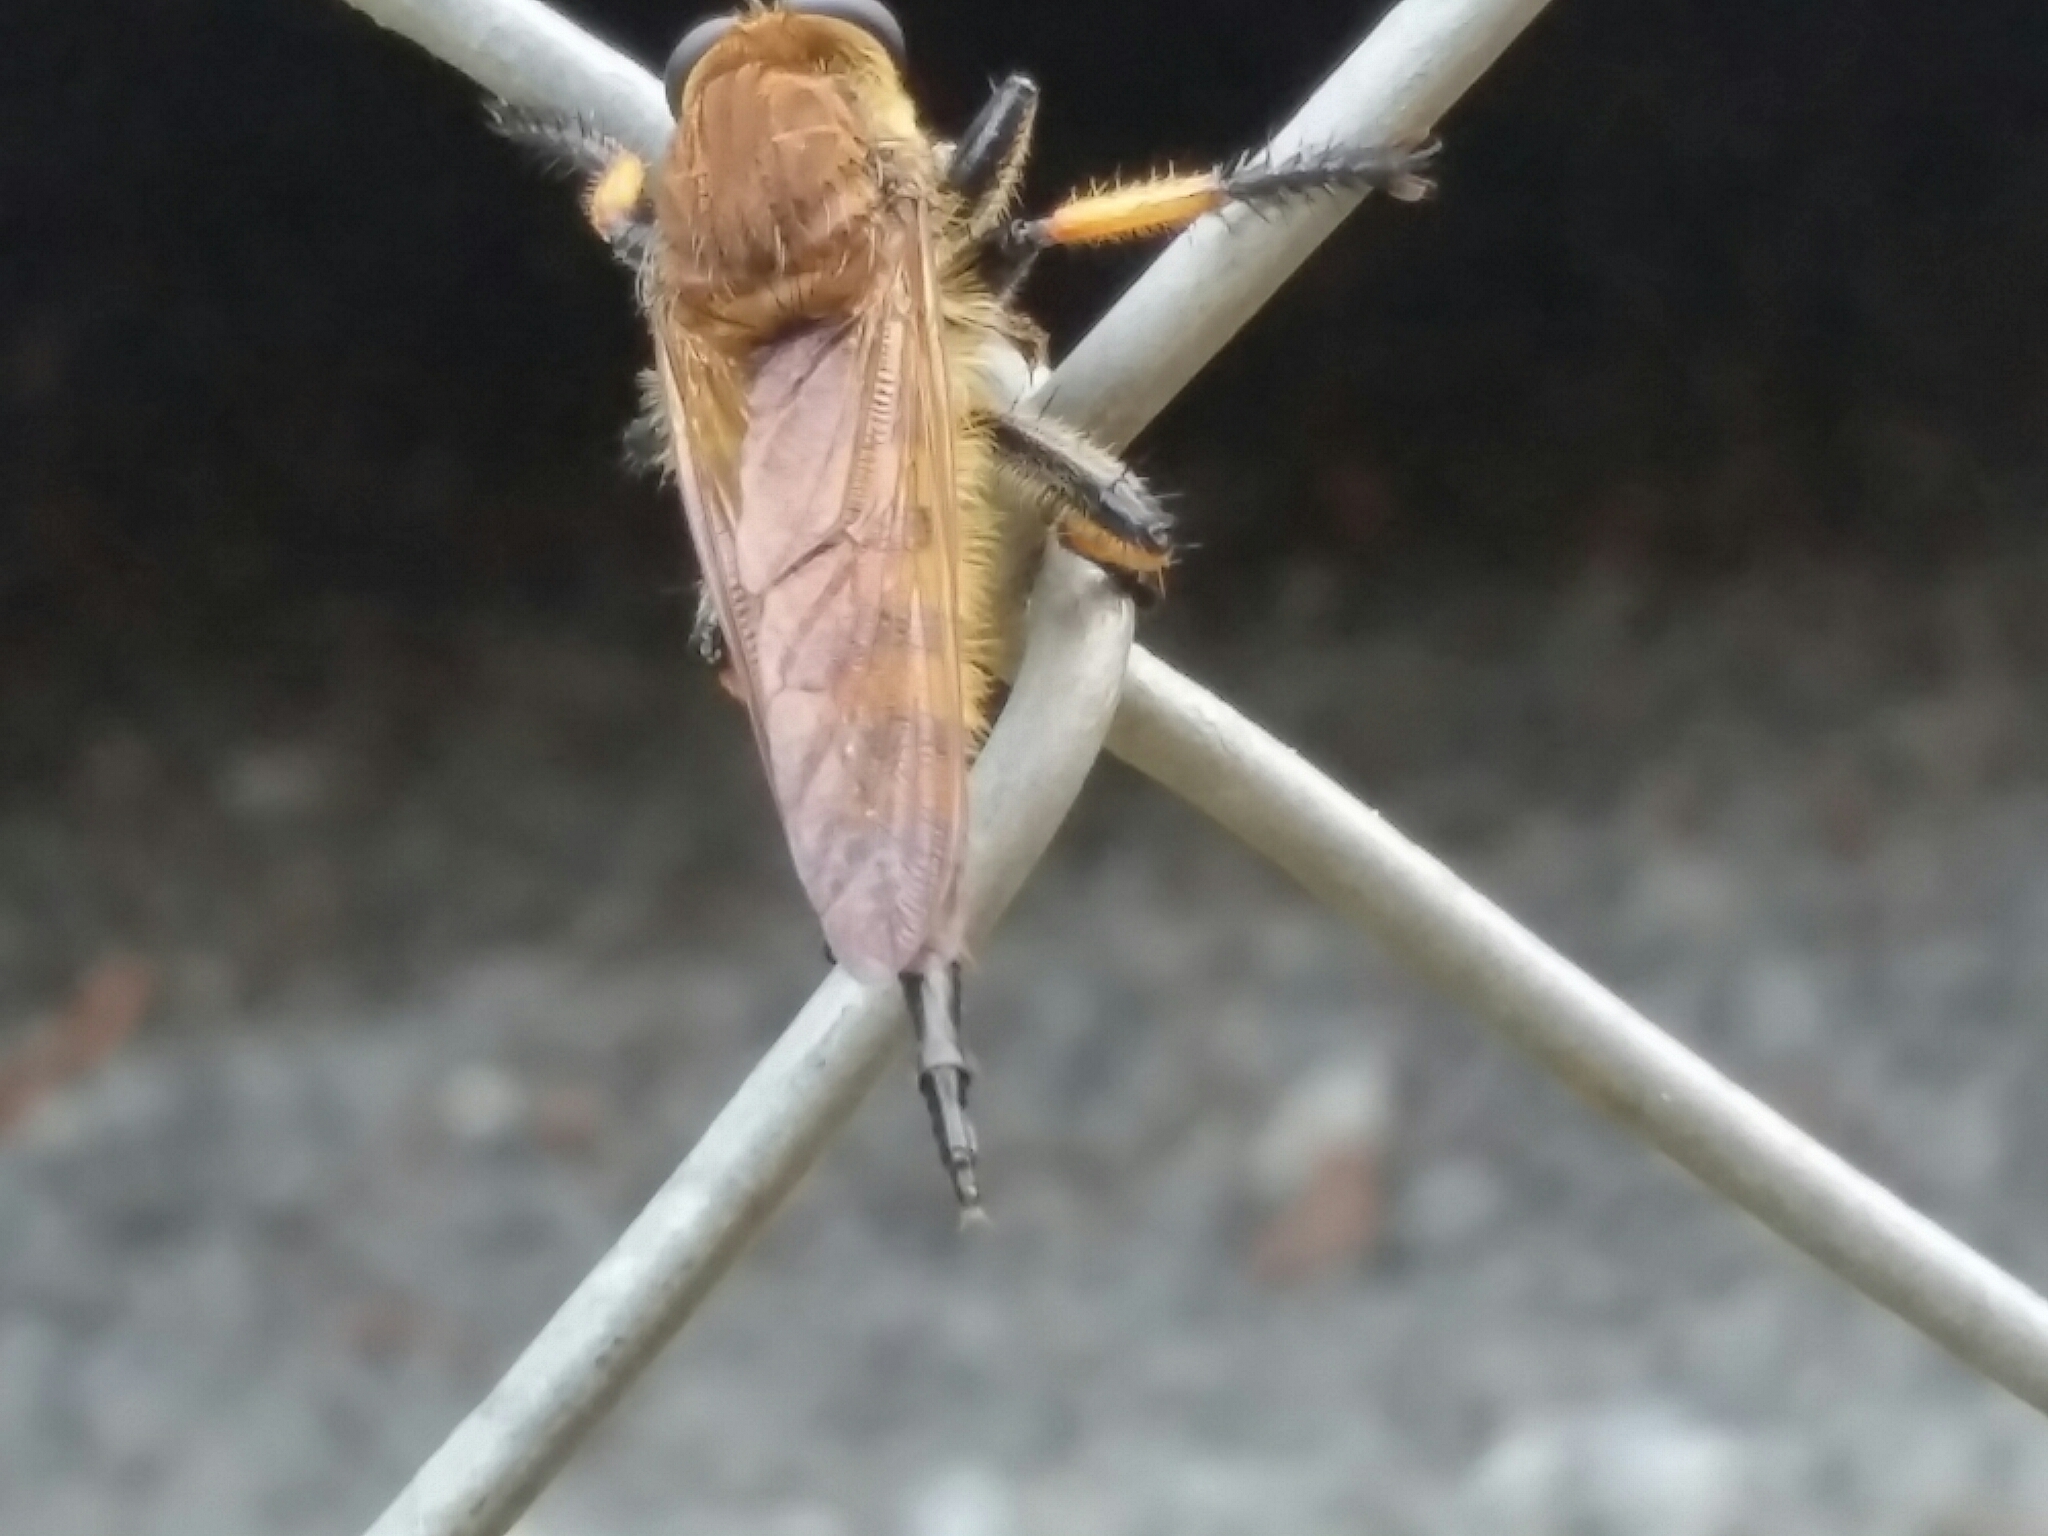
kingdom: Animalia
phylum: Arthropoda
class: Insecta
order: Diptera
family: Asilidae
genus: Promachus
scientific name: Promachus rufipes
